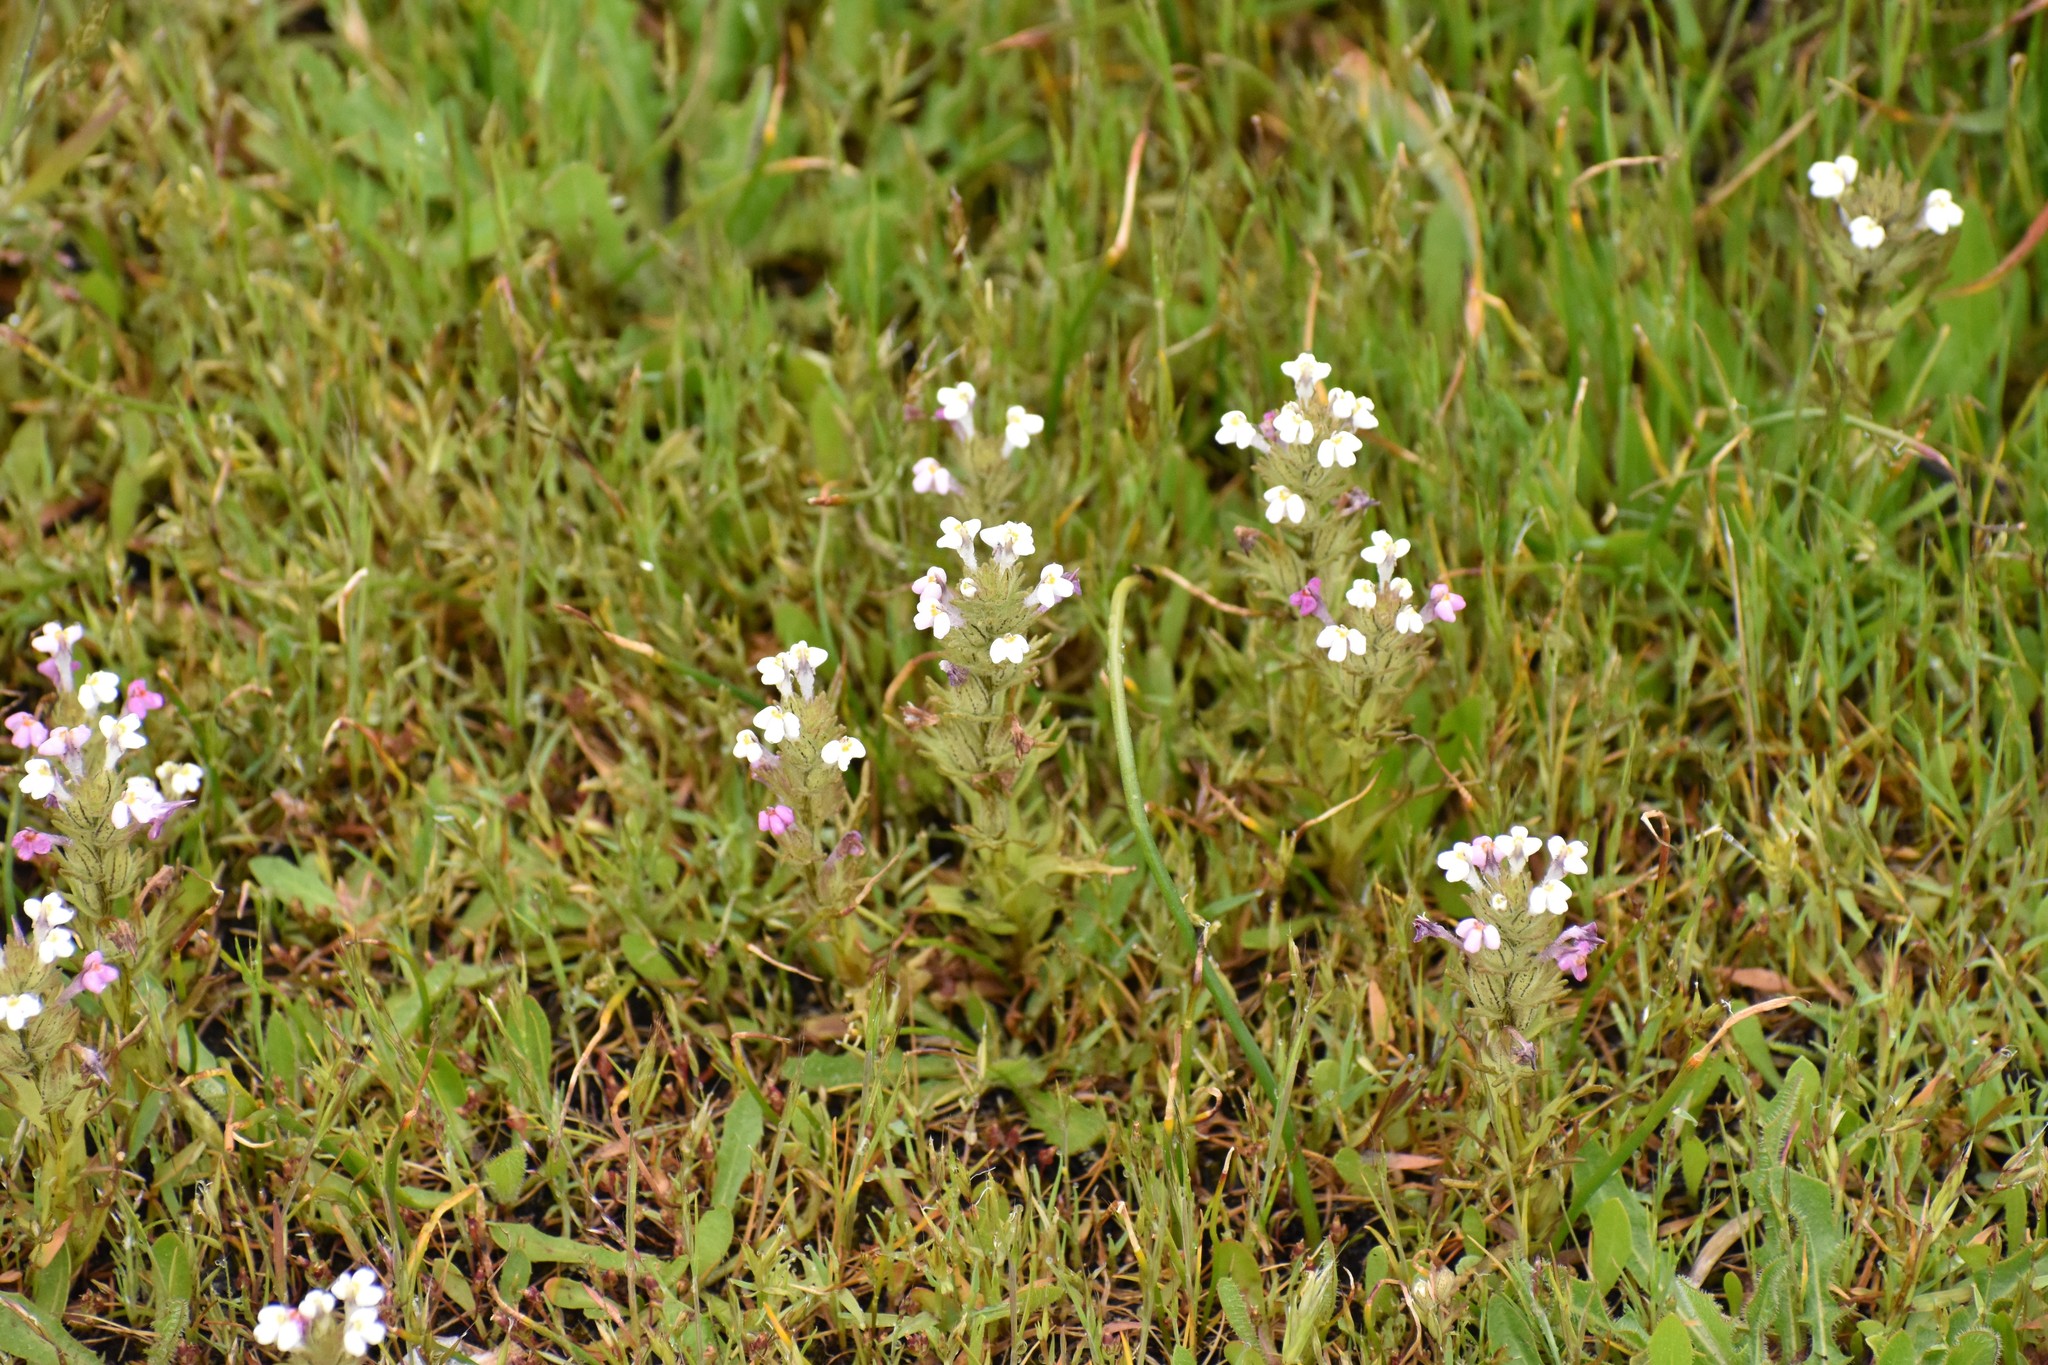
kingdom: Plantae
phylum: Tracheophyta
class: Magnoliopsida
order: Lamiales
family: Orobanchaceae
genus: Triphysaria
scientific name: Triphysaria versicolor
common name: Bearded false owl-clover
